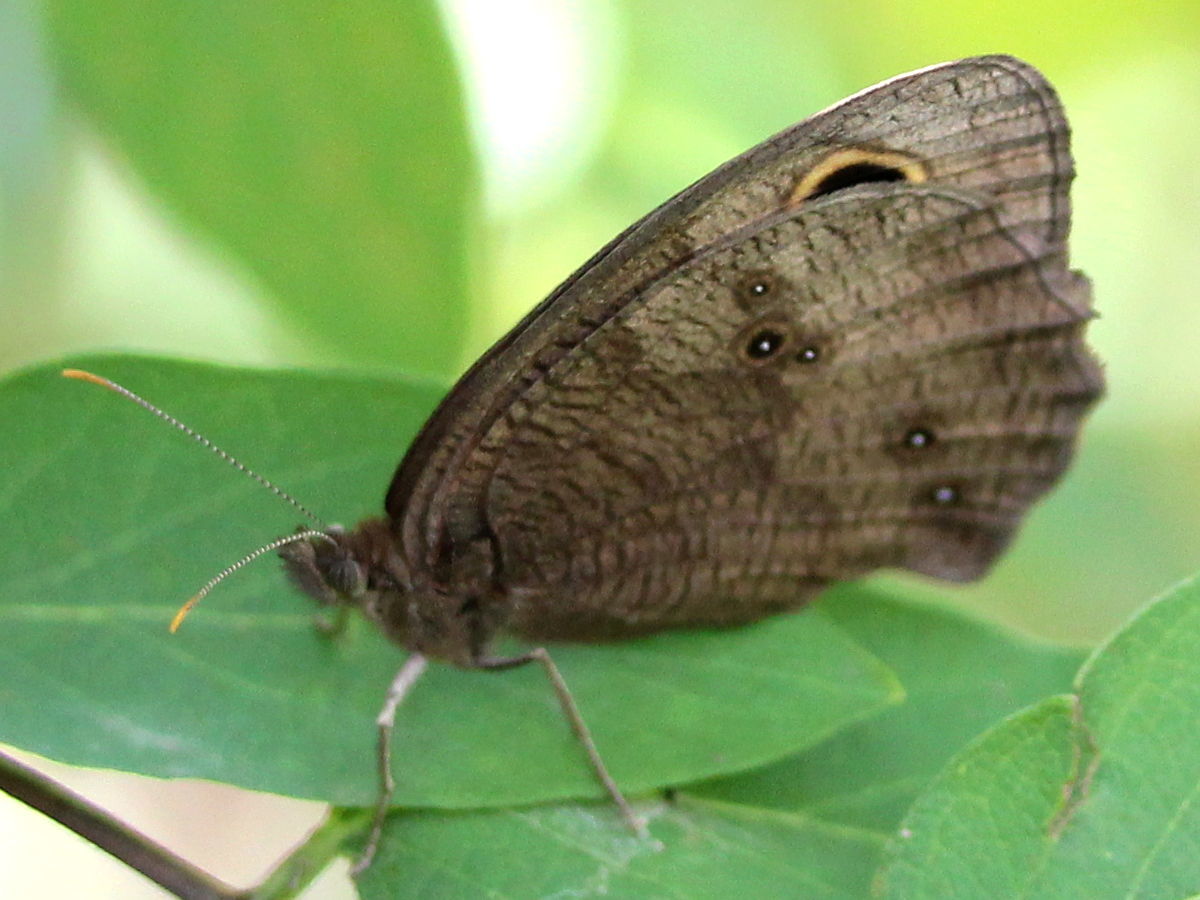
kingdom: Animalia
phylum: Arthropoda
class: Insecta
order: Lepidoptera
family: Nymphalidae
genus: Cercyonis
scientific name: Cercyonis pegala
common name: Common wood-nymph
